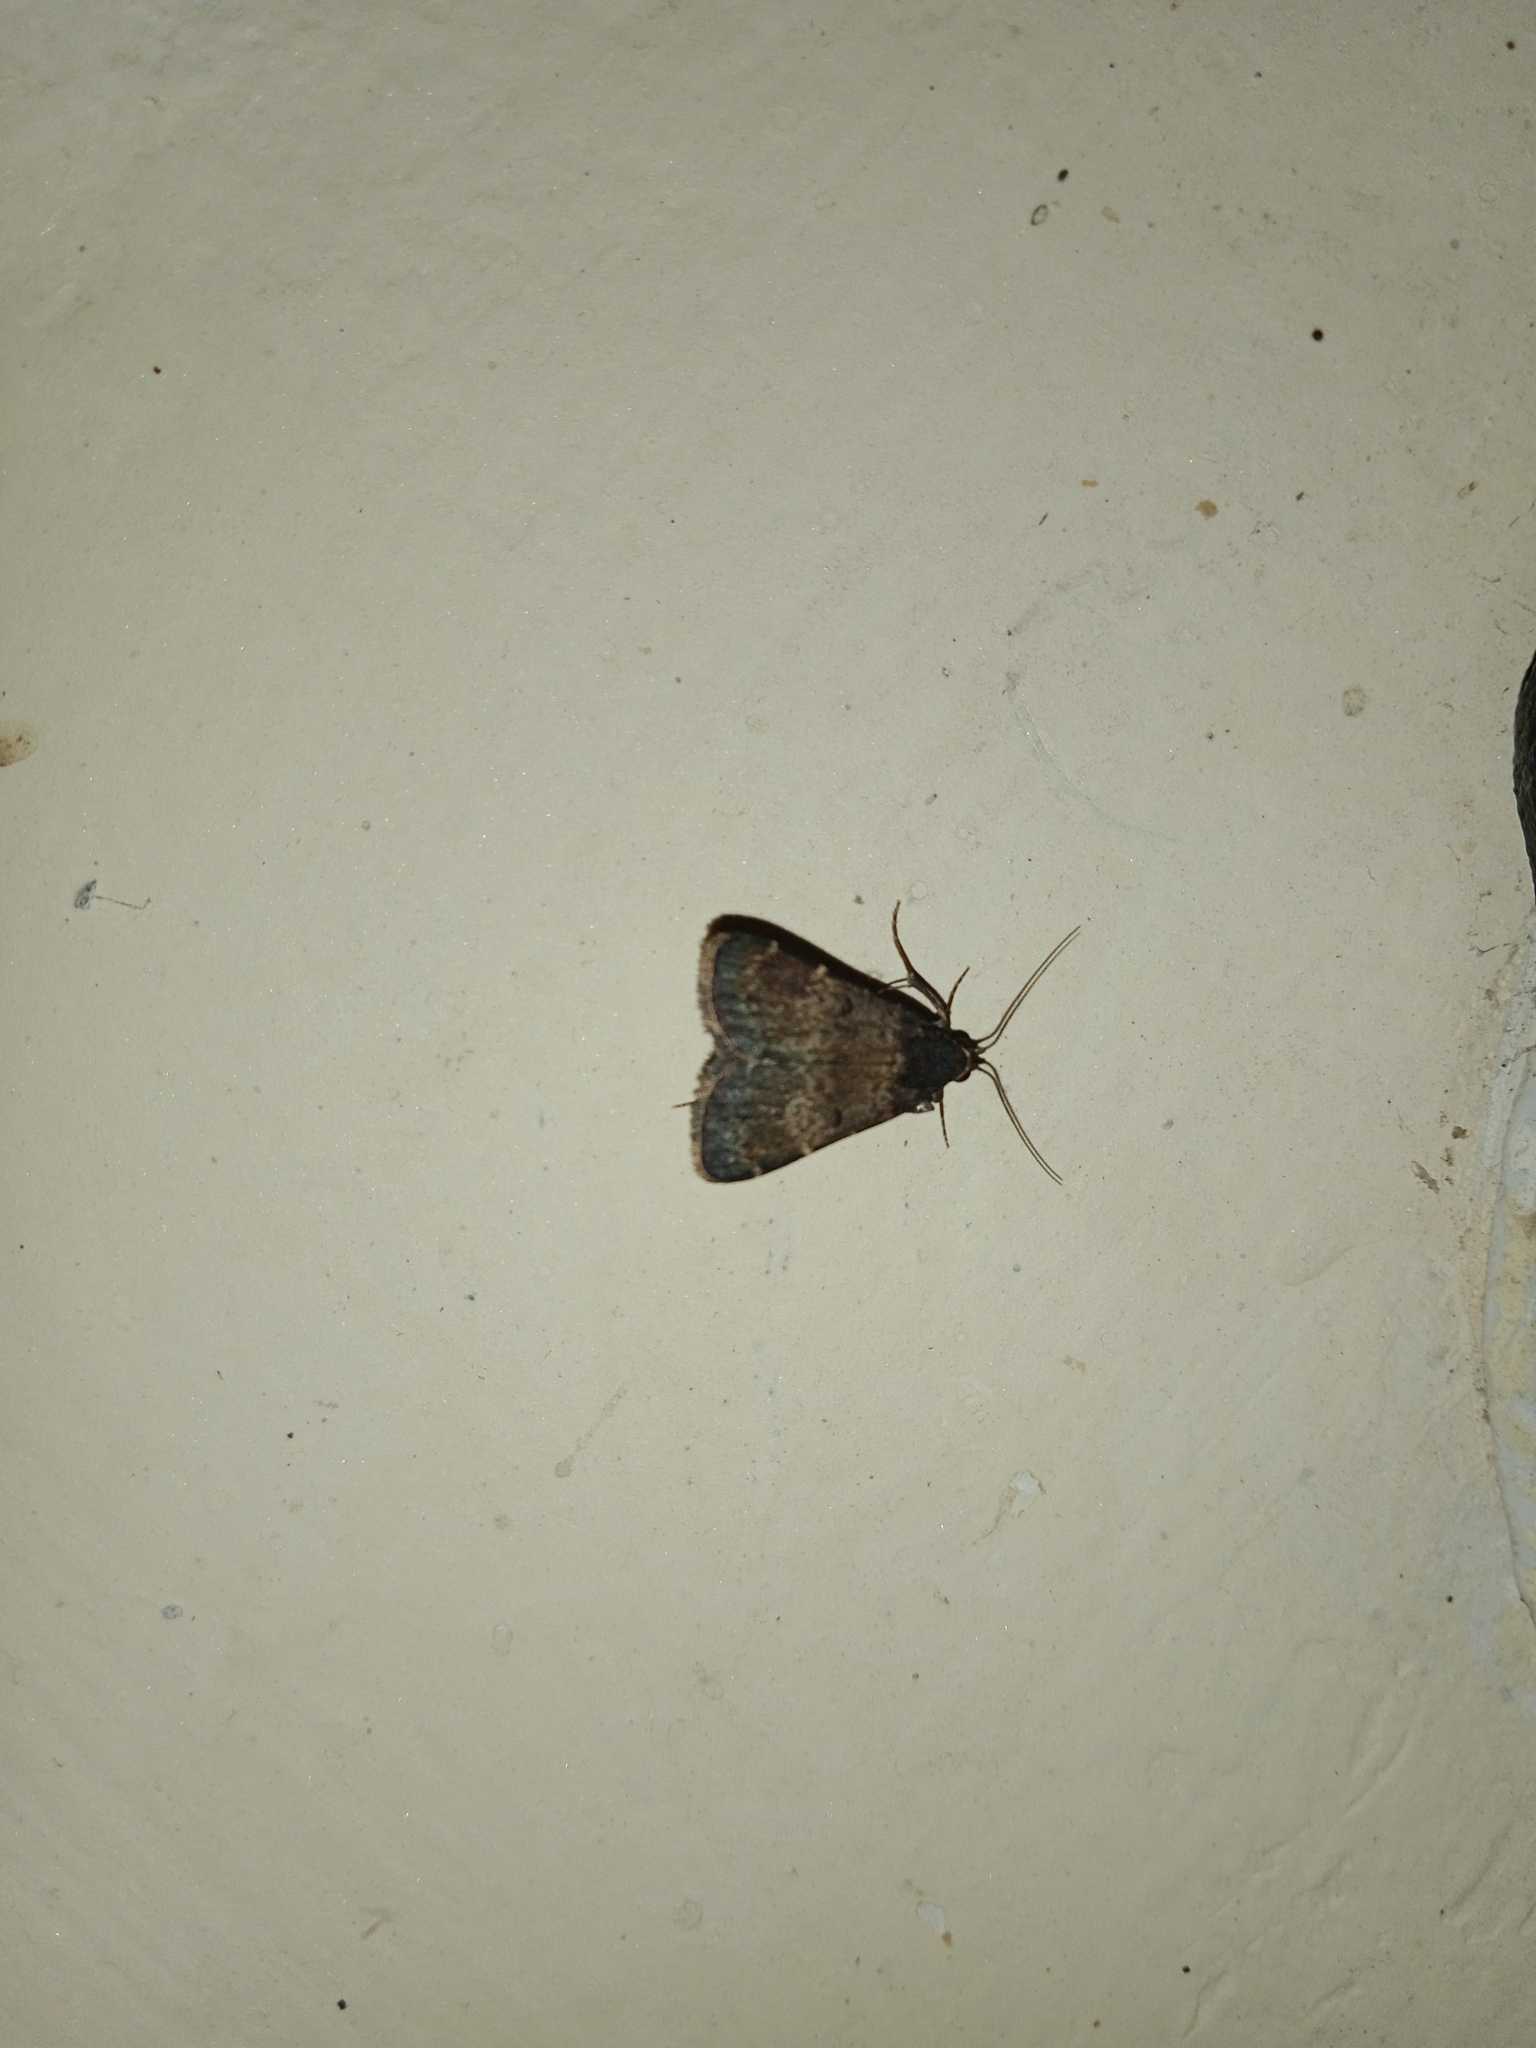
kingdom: Animalia
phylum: Arthropoda
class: Insecta
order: Lepidoptera
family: Erebidae
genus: Hydrillodes
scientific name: Hydrillodes lentalis
